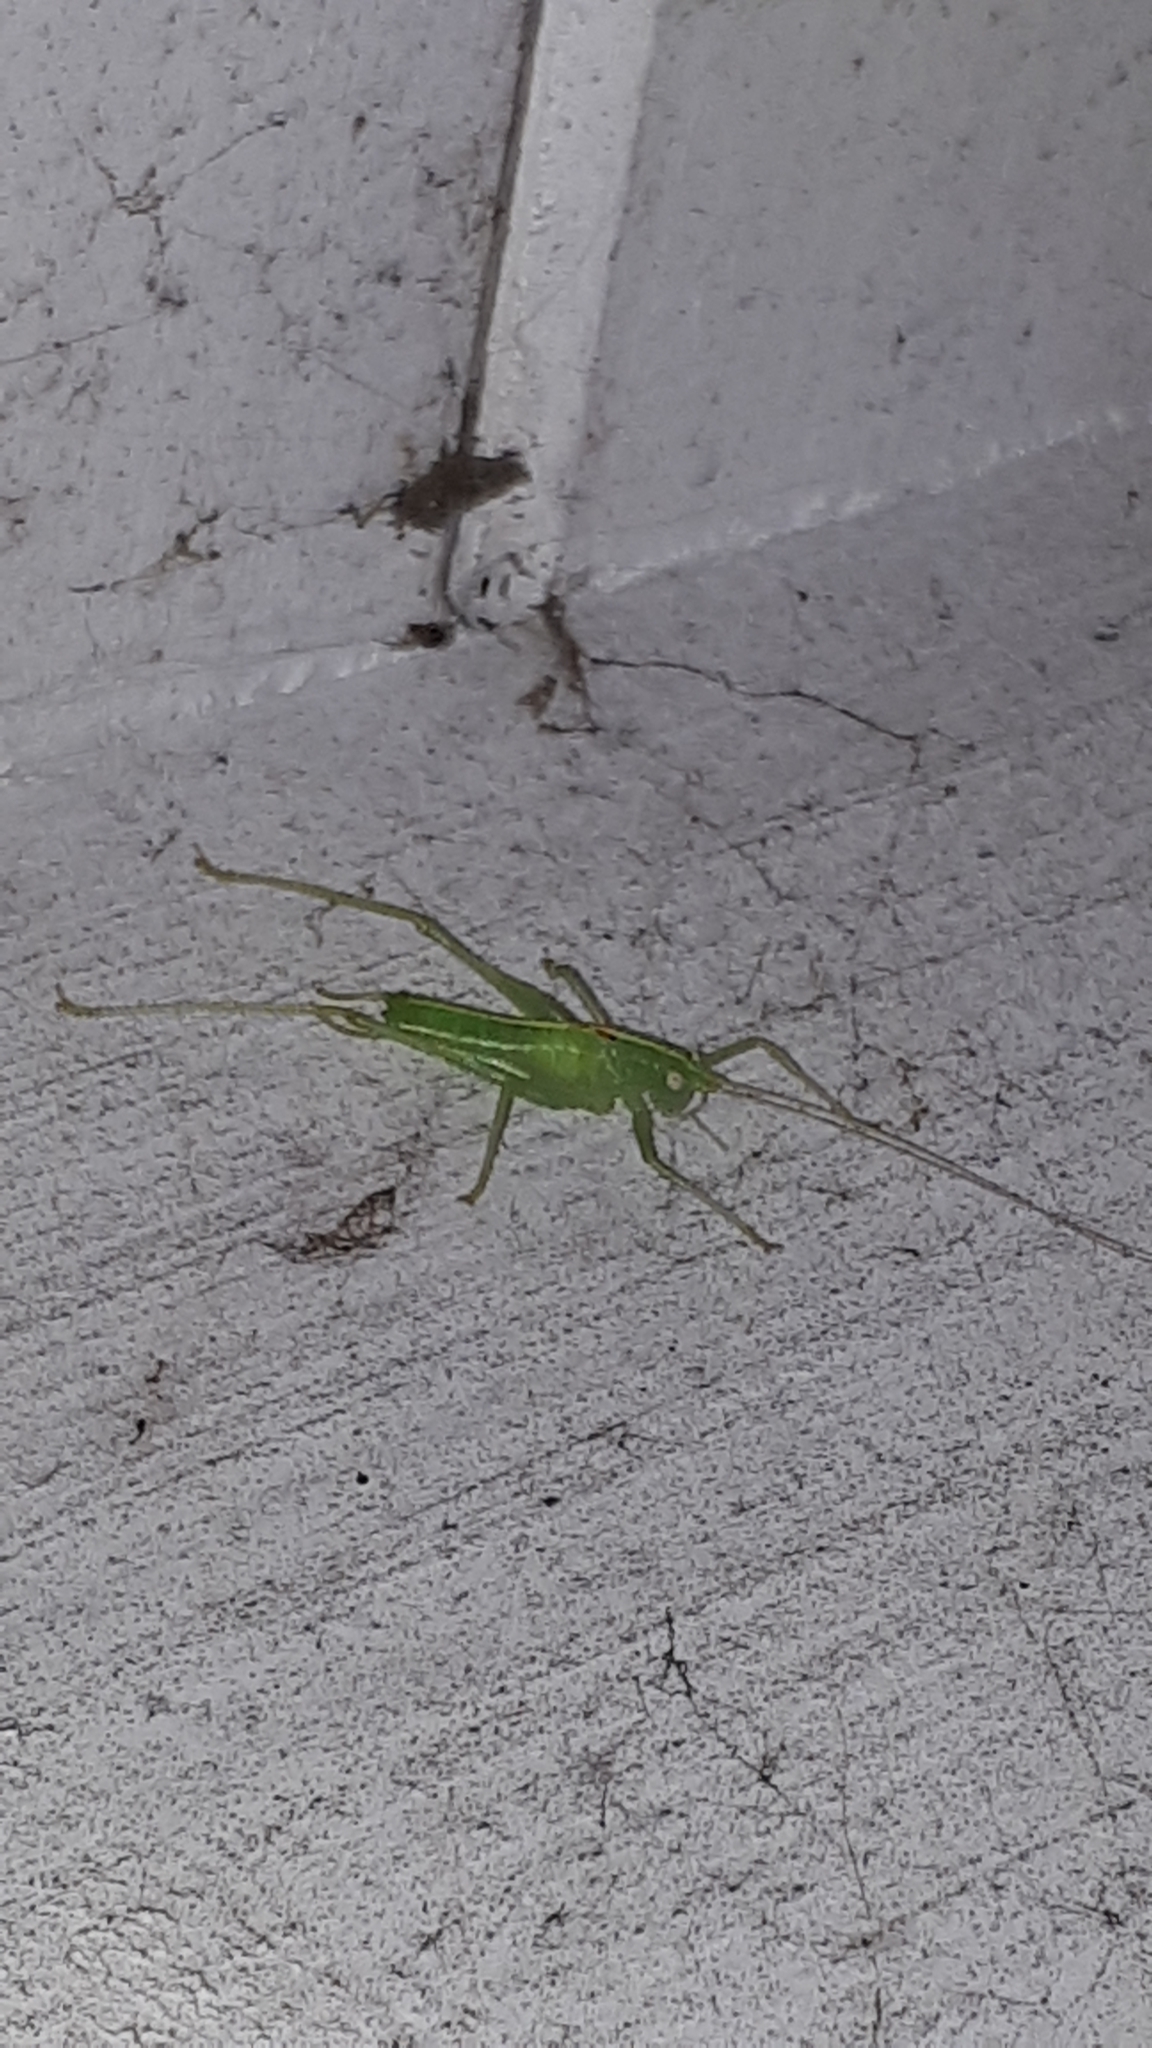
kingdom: Animalia
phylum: Arthropoda
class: Insecta
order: Orthoptera
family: Tettigoniidae
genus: Meconema
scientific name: Meconema meridionale
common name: Southern oak bush-cricket
